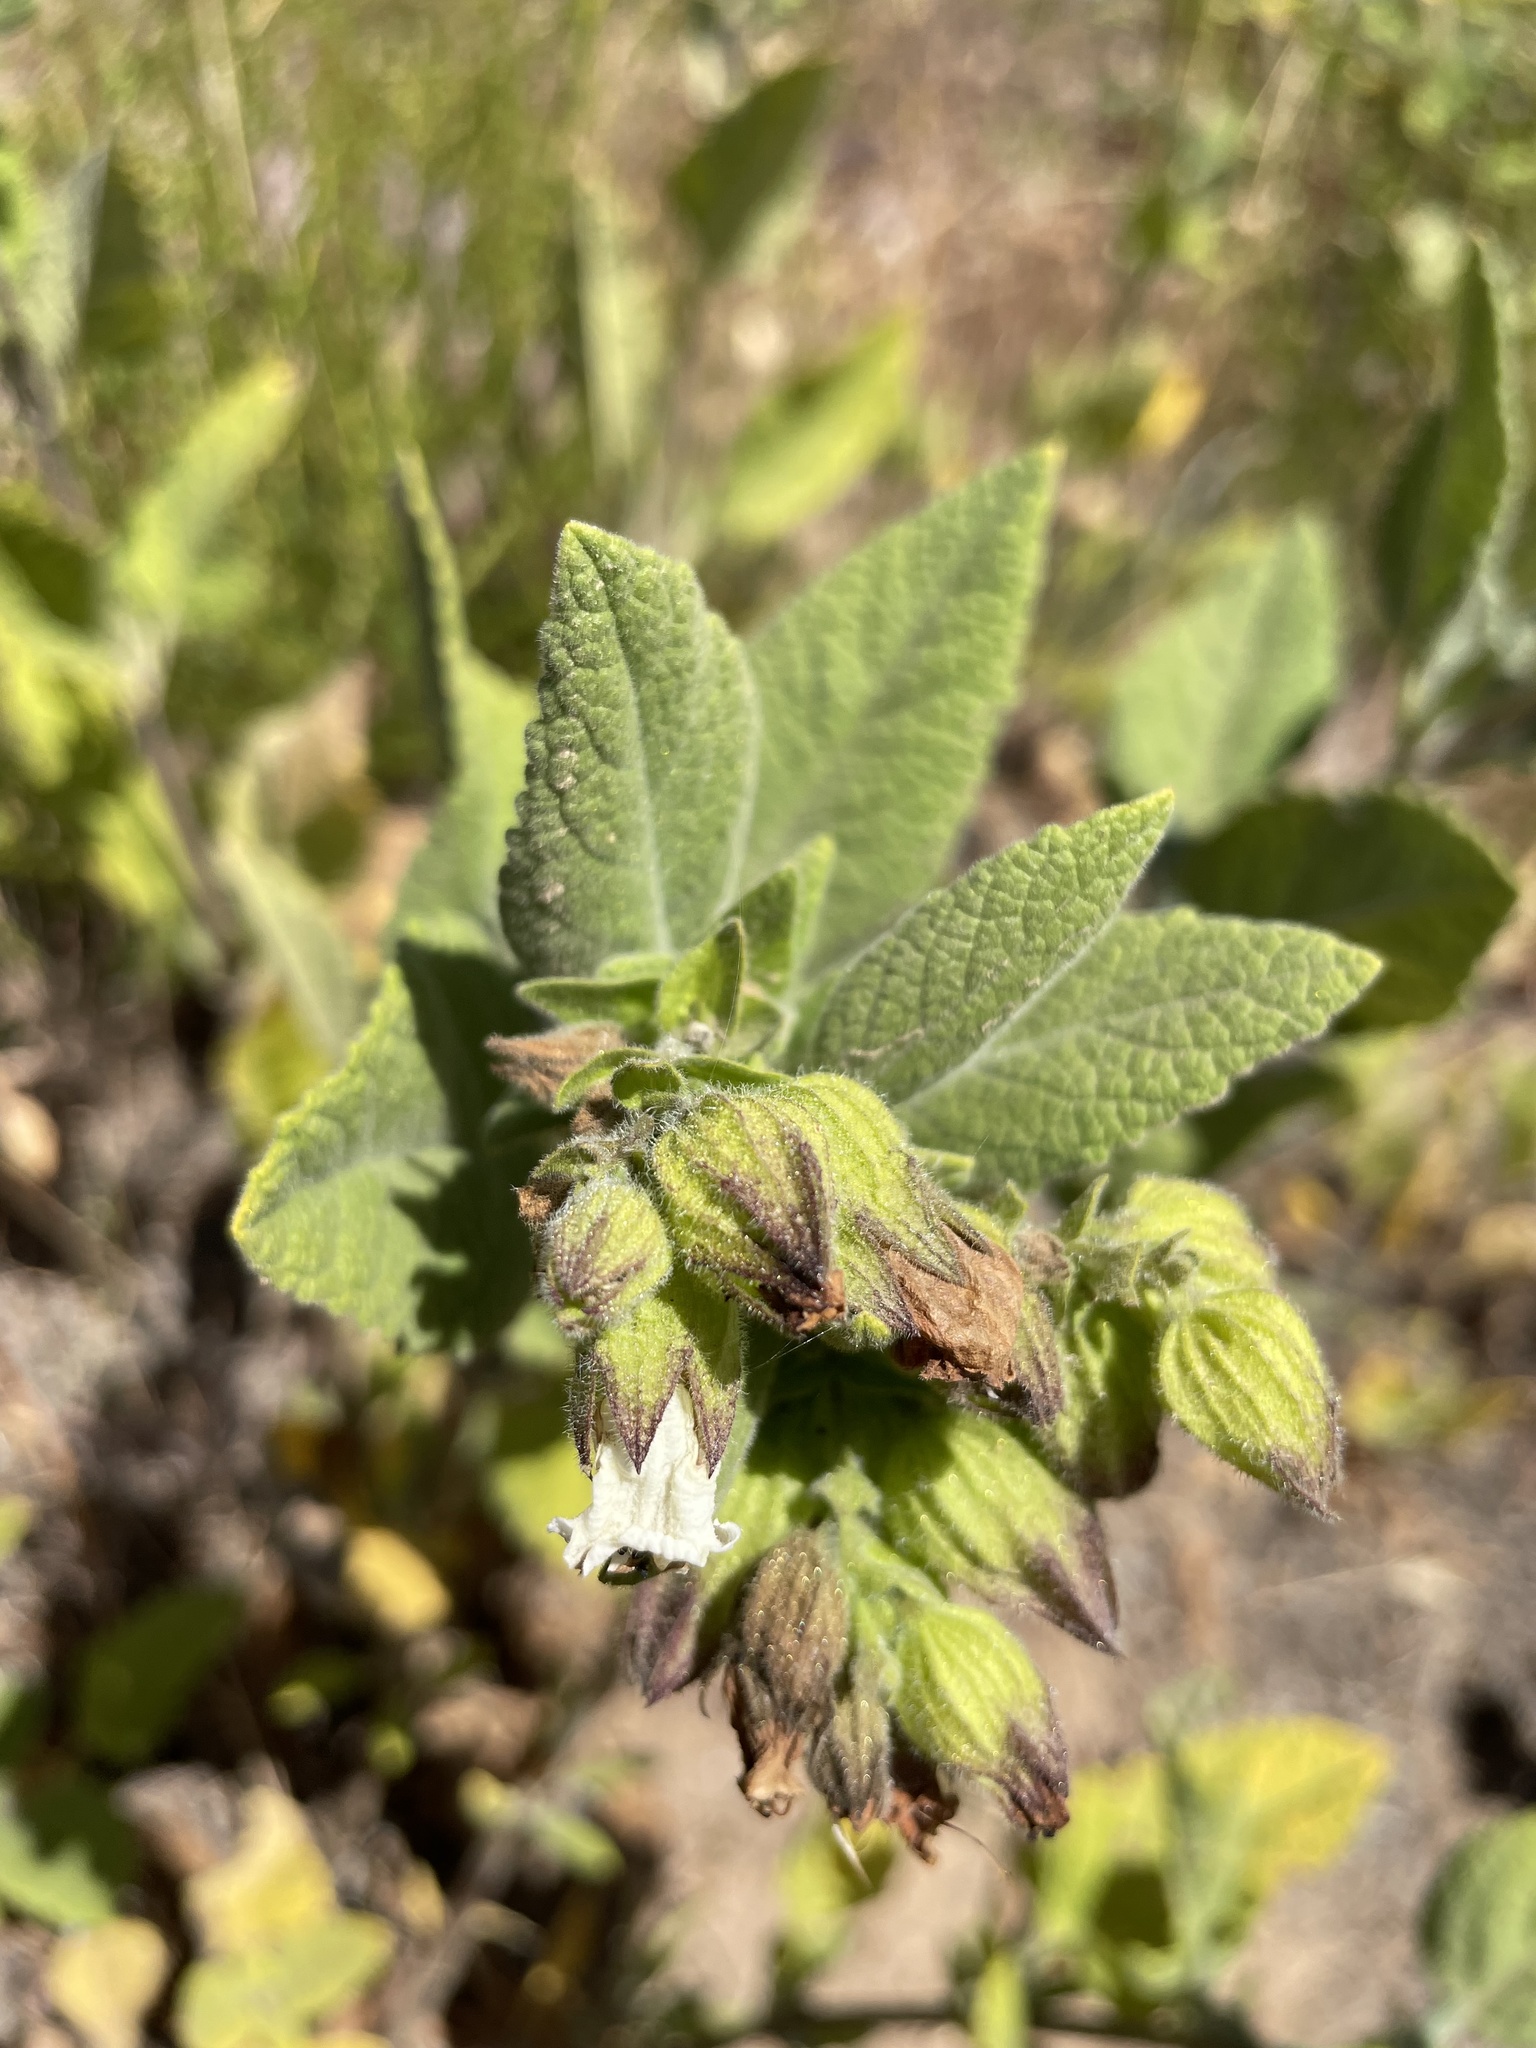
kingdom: Plantae
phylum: Tracheophyta
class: Magnoliopsida
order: Lamiales
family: Lamiaceae
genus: Lepechinia
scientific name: Lepechinia calycina
